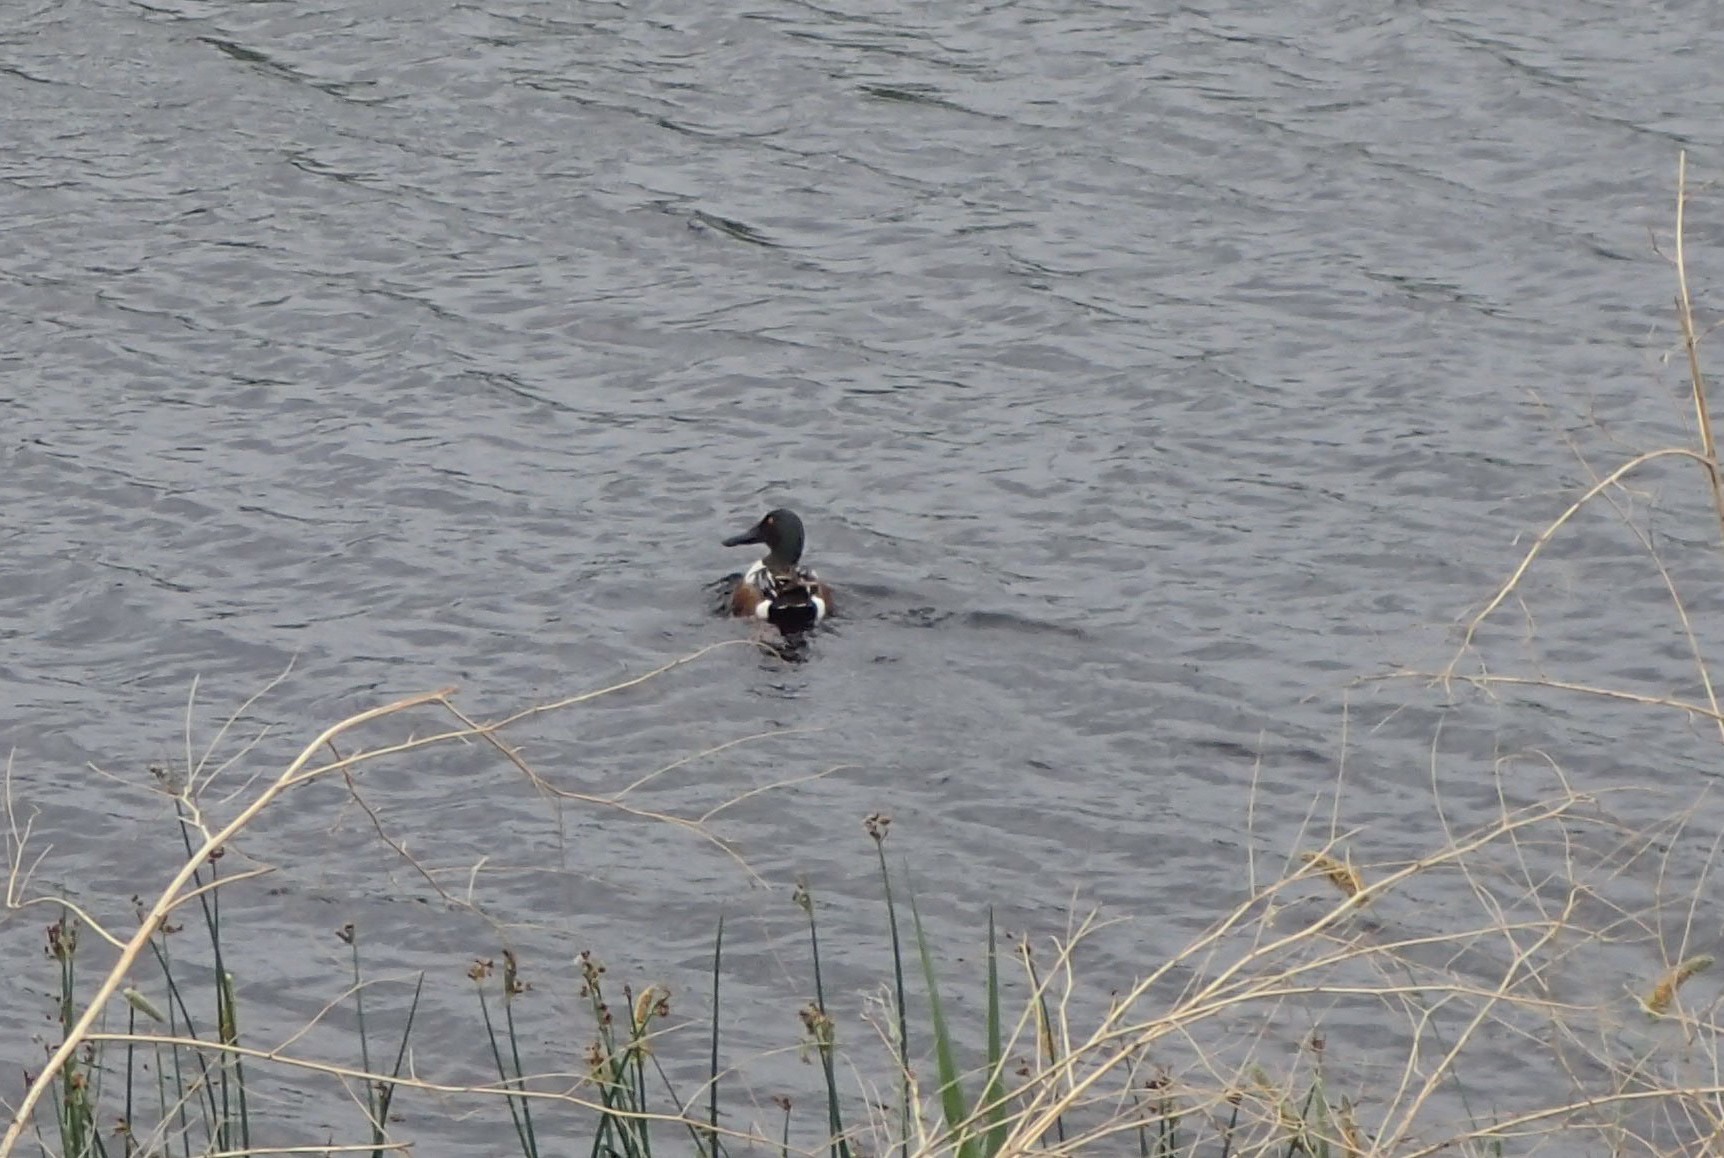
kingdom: Animalia
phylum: Chordata
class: Aves
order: Anseriformes
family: Anatidae
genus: Spatula
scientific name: Spatula clypeata
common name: Northern shoveler
